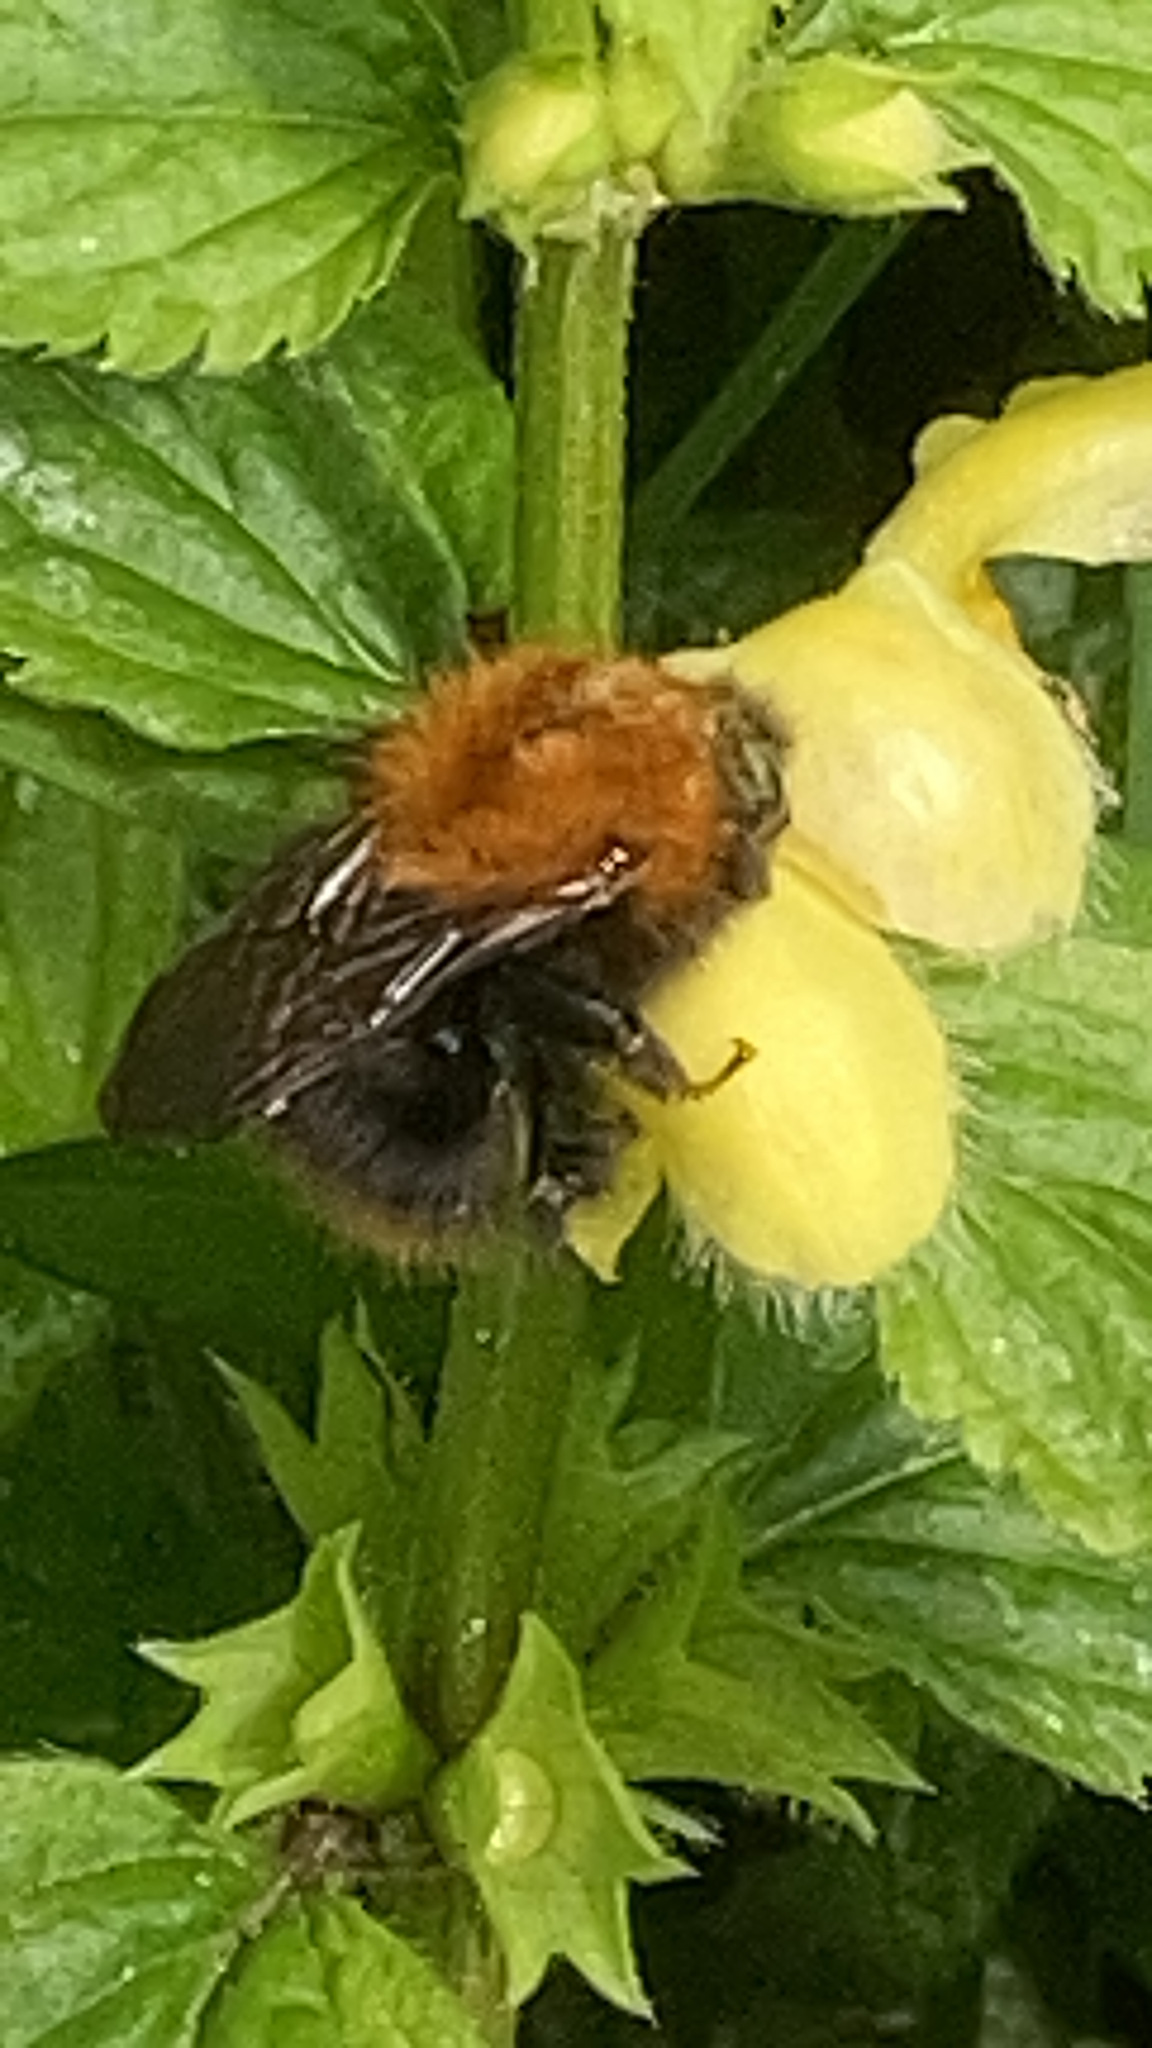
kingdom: Animalia
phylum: Arthropoda
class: Insecta
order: Hymenoptera
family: Apidae
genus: Bombus
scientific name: Bombus pascuorum
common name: Common carder bee
